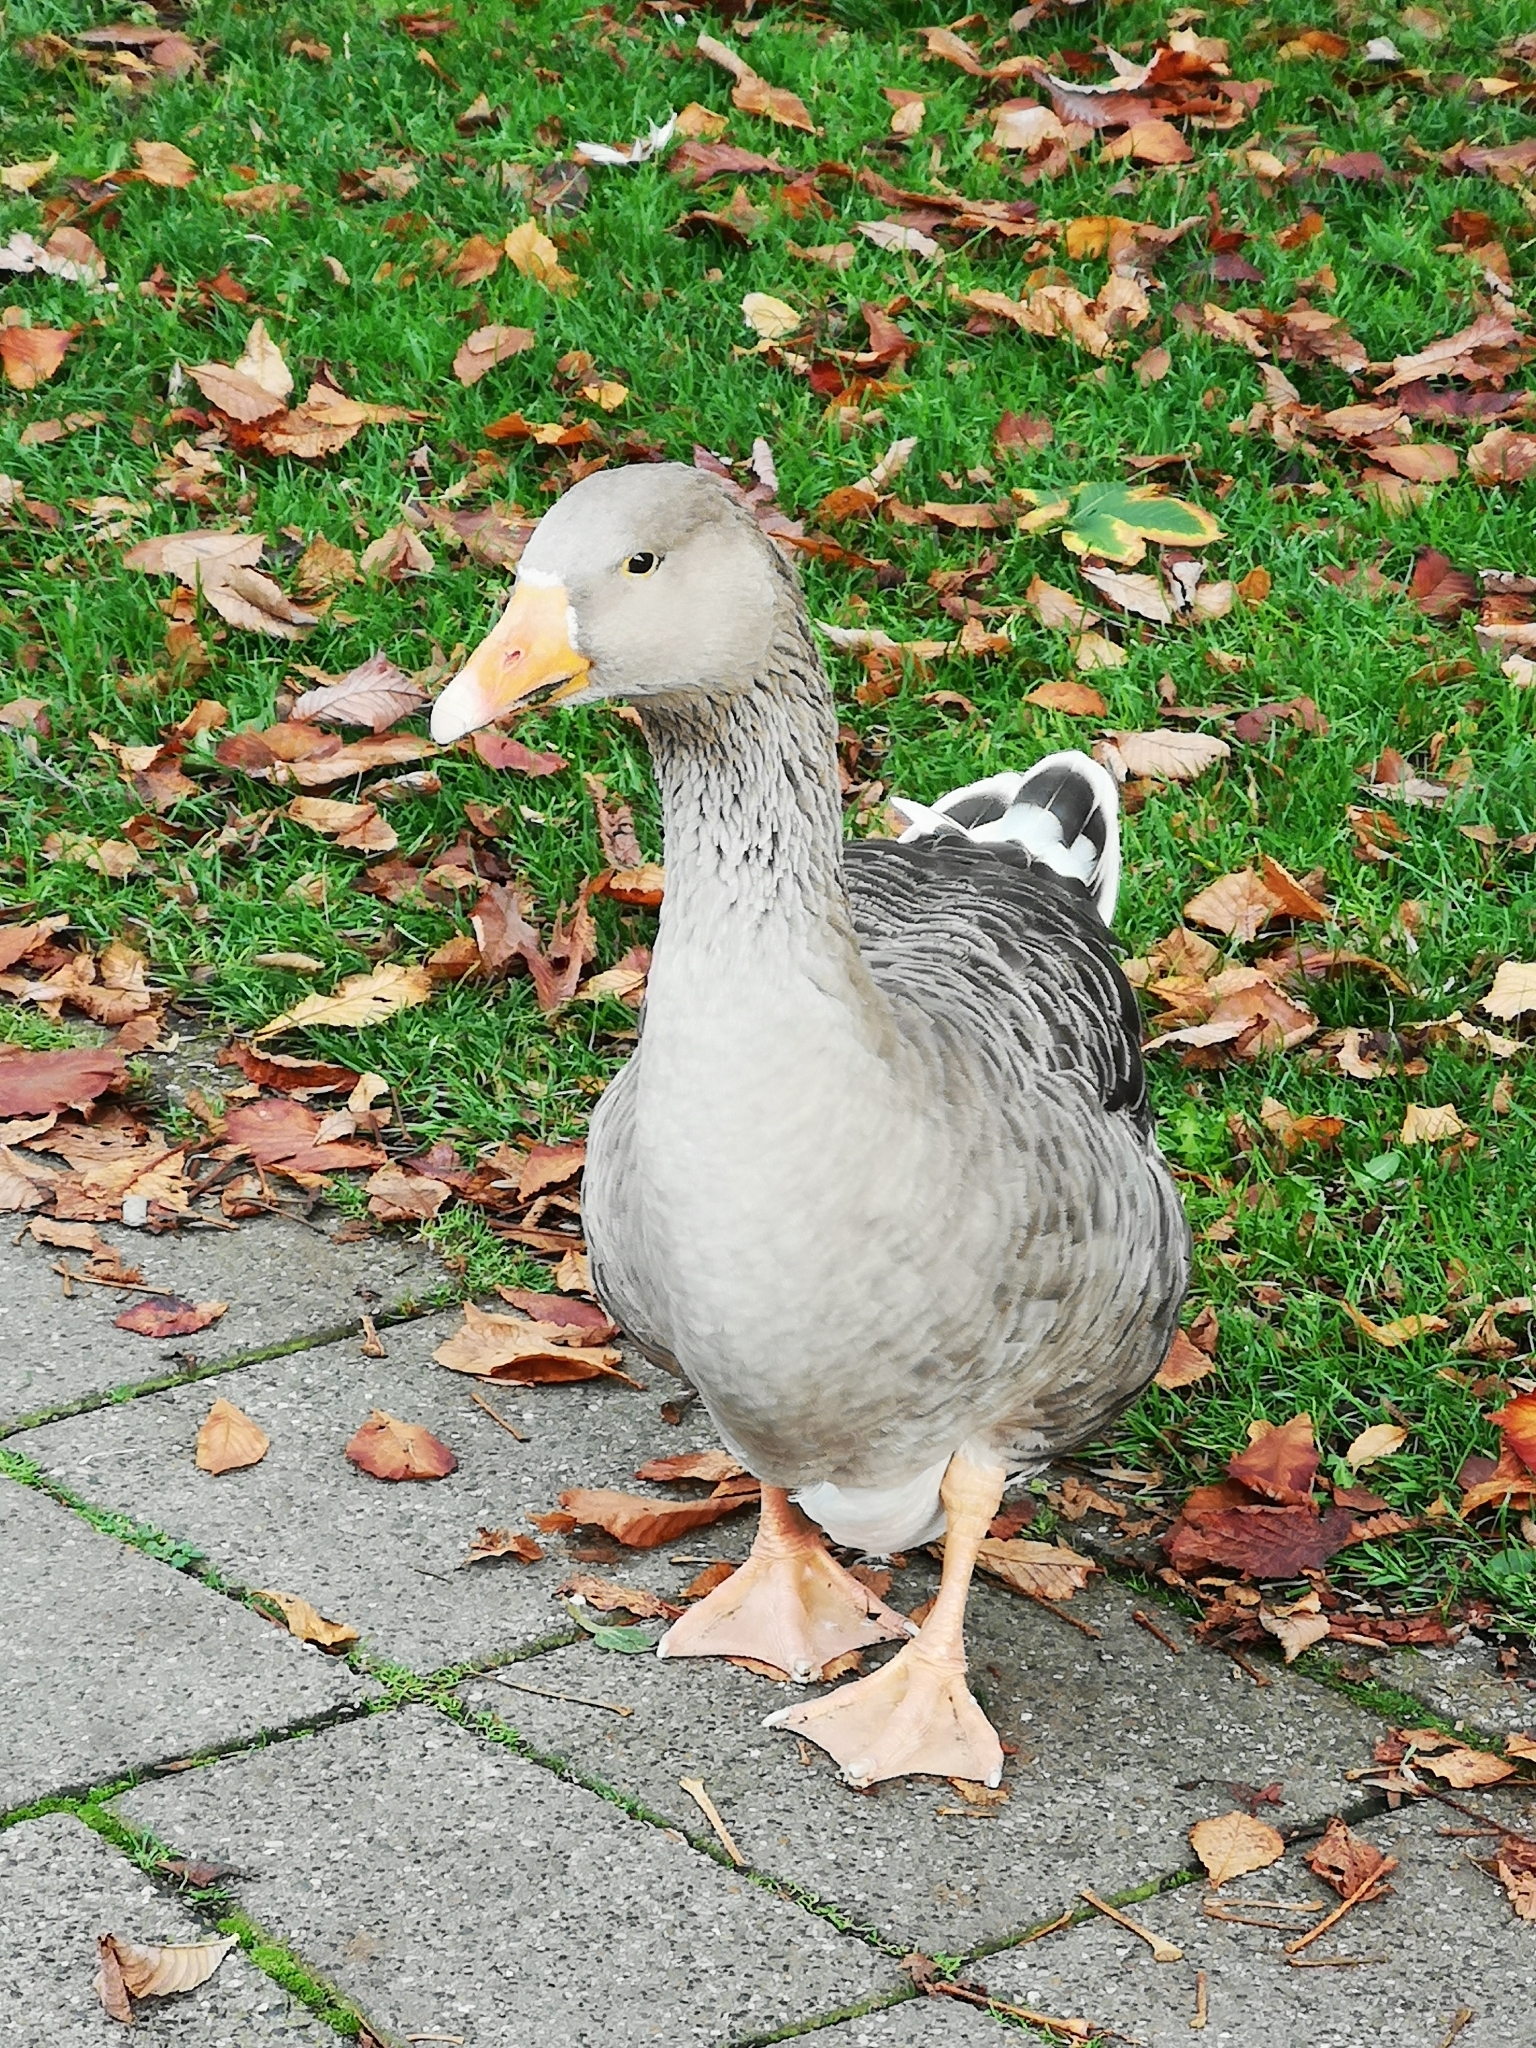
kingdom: Animalia
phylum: Chordata
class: Aves
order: Anseriformes
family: Anatidae
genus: Anser
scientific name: Anser anser
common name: Greylag goose
